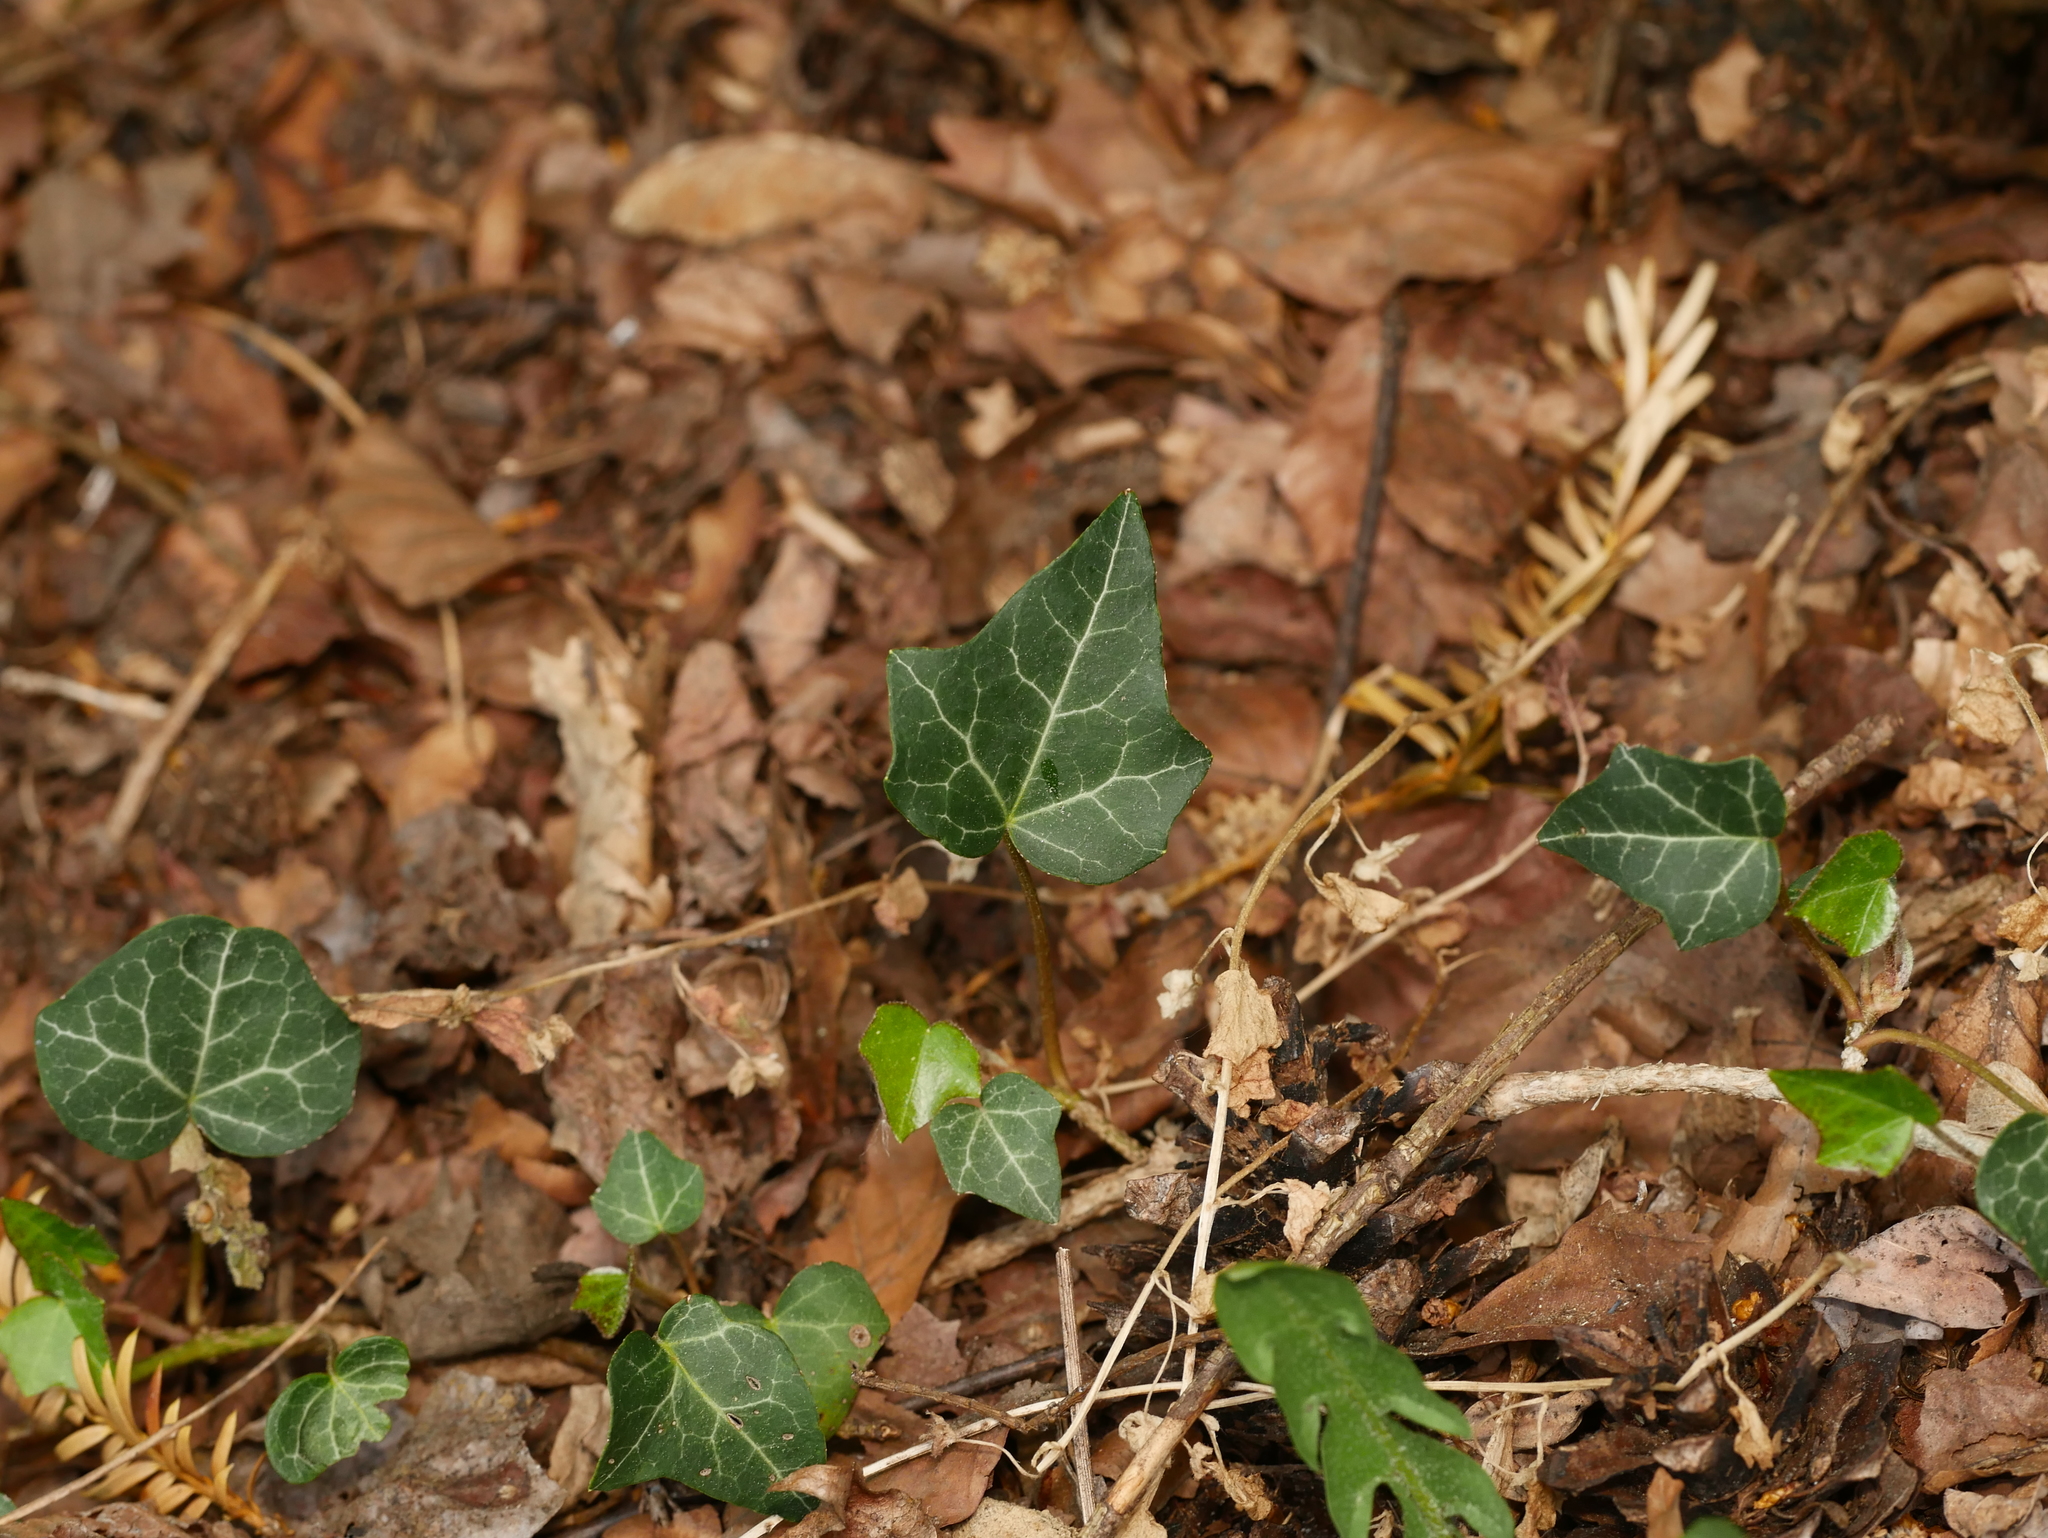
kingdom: Plantae
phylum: Tracheophyta
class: Magnoliopsida
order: Apiales
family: Araliaceae
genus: Hedera
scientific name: Hedera helix
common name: Ivy
